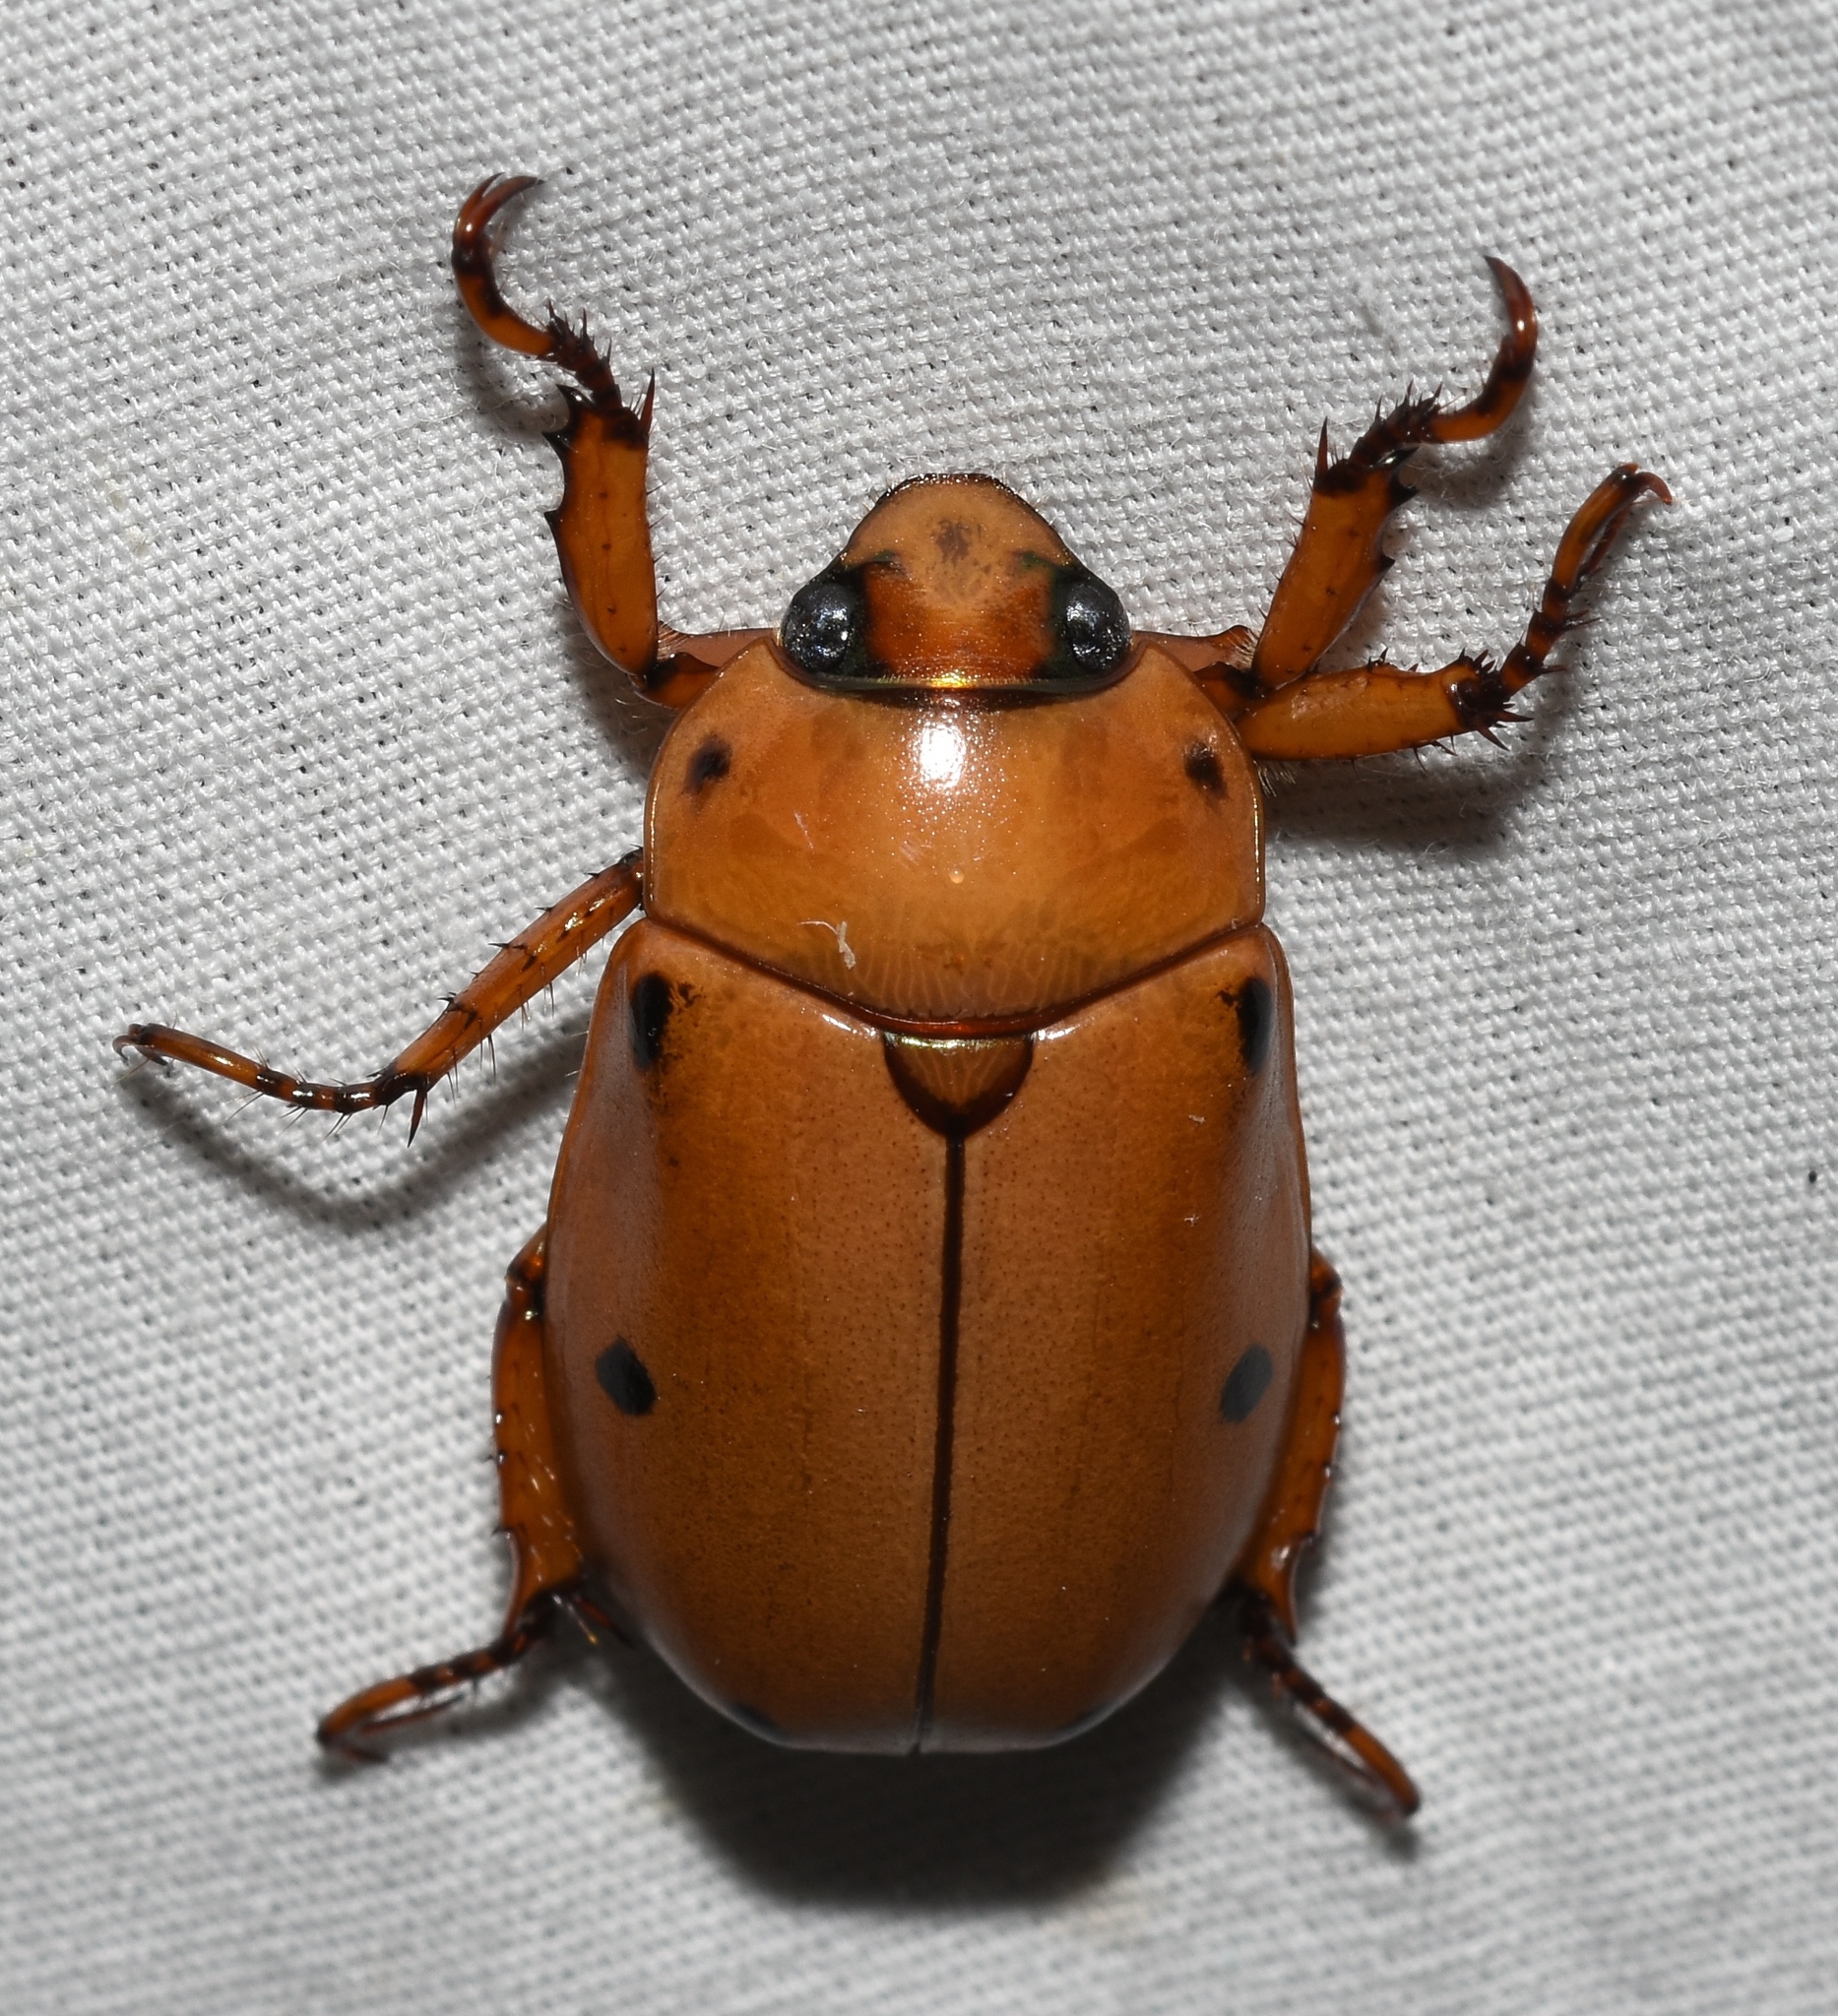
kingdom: Animalia
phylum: Arthropoda
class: Insecta
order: Coleoptera
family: Scarabaeidae
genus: Pelidnota
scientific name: Pelidnota punctata
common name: Grapevine beetle
